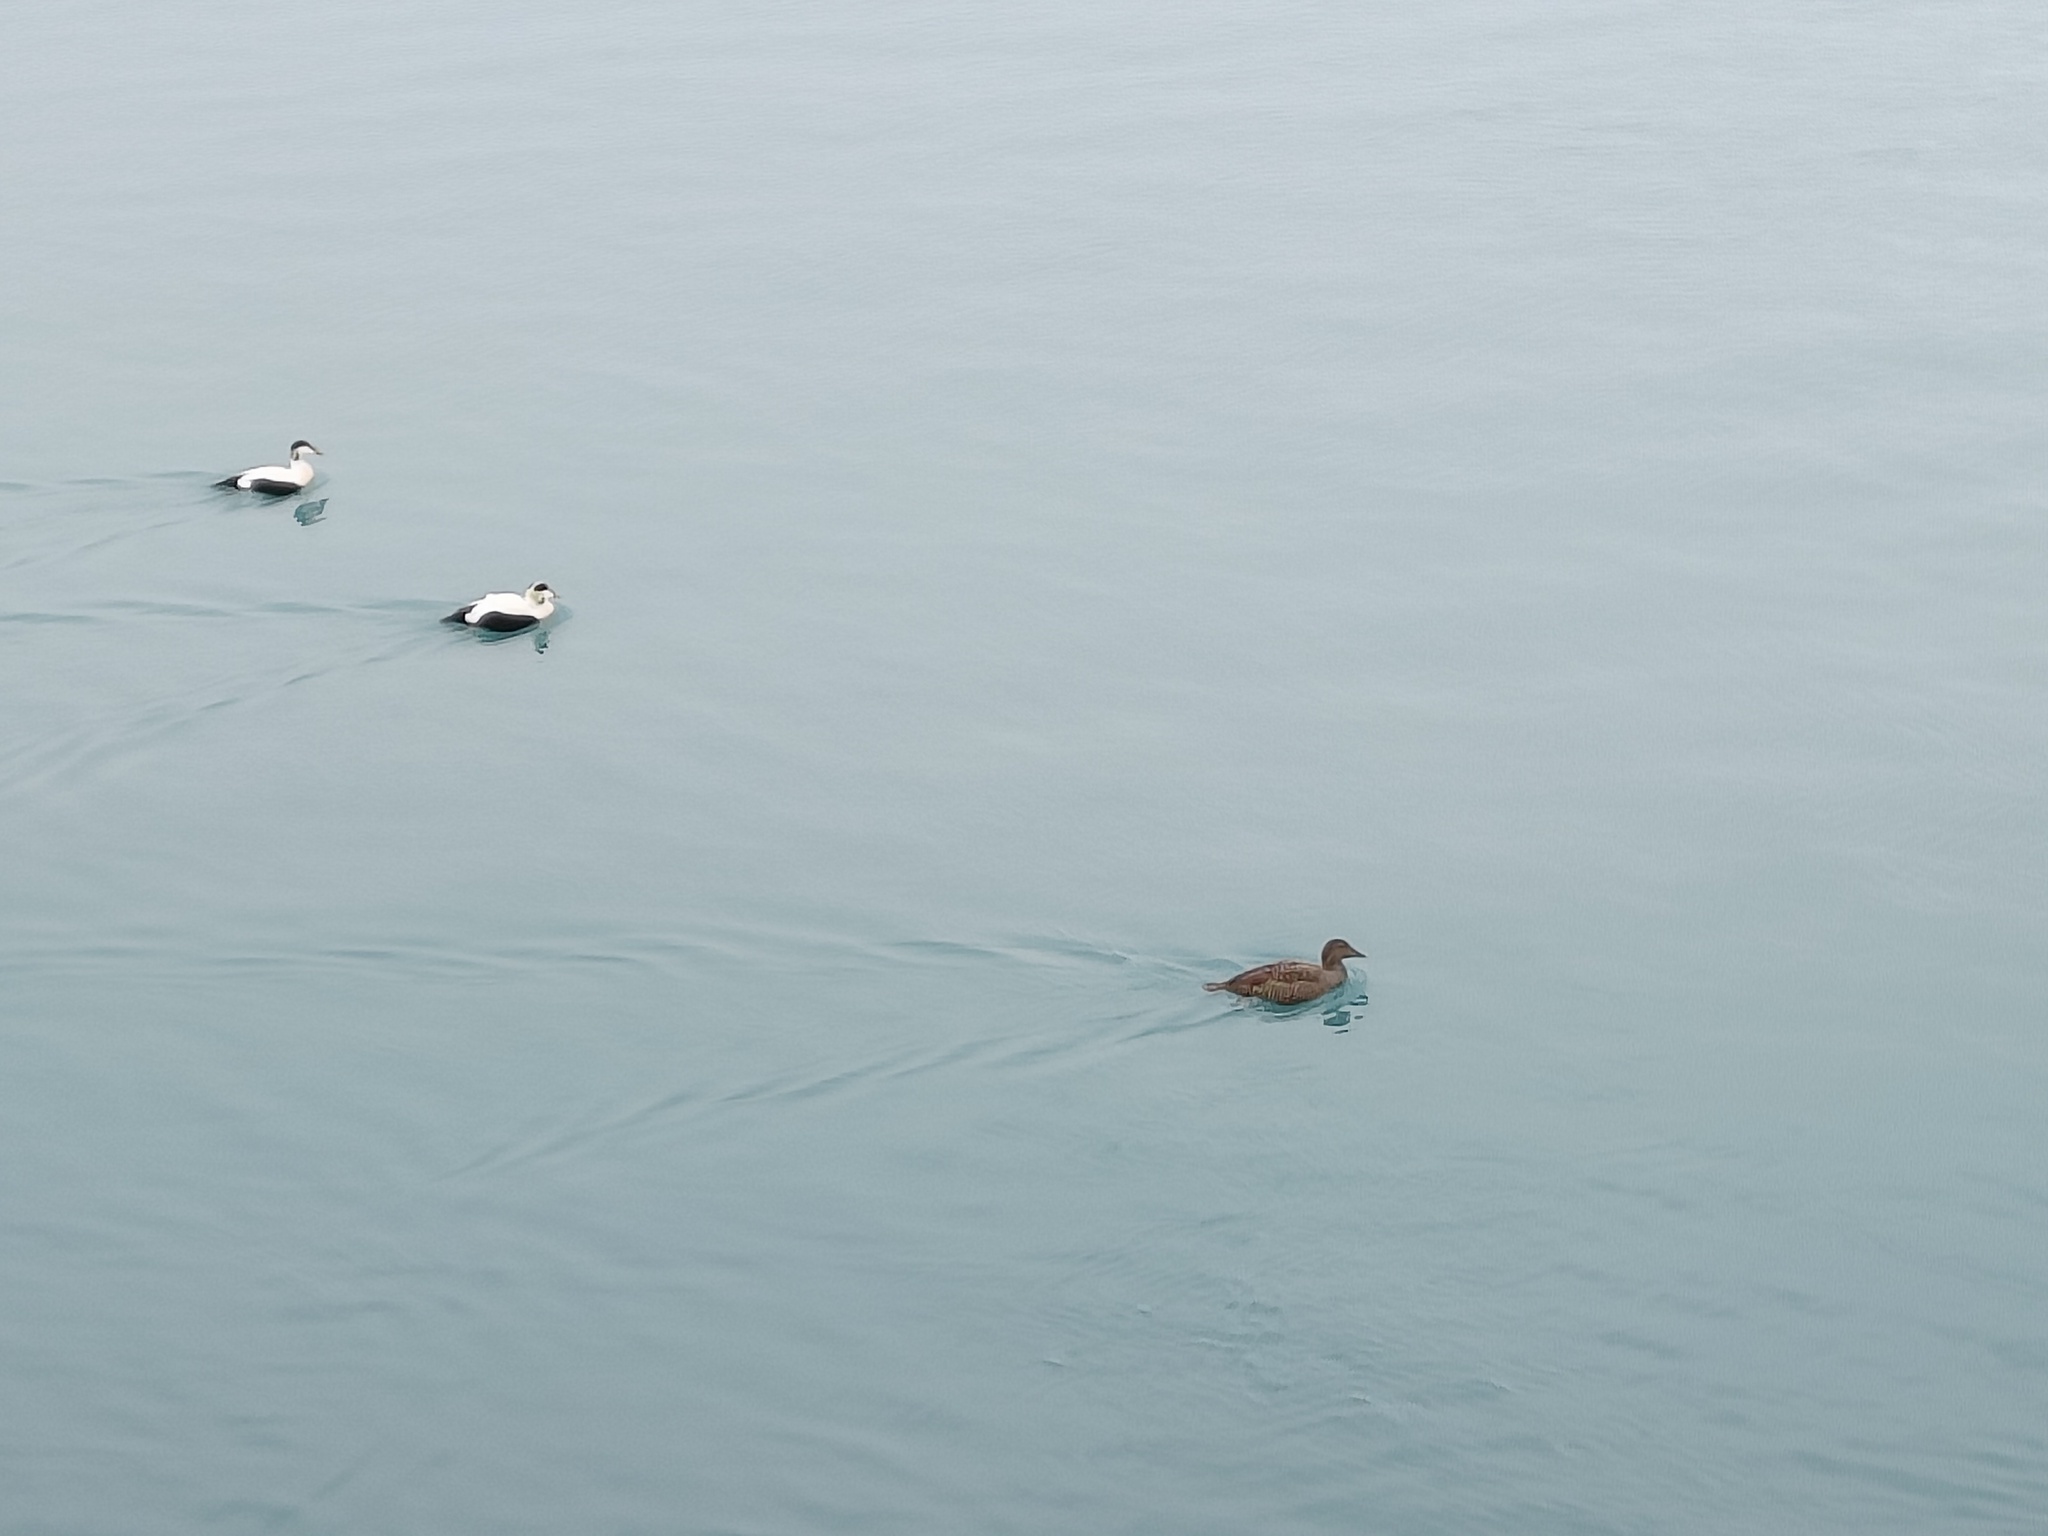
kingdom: Animalia
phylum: Chordata
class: Aves
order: Anseriformes
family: Anatidae
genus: Somateria
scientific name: Somateria mollissima
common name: Common eider
